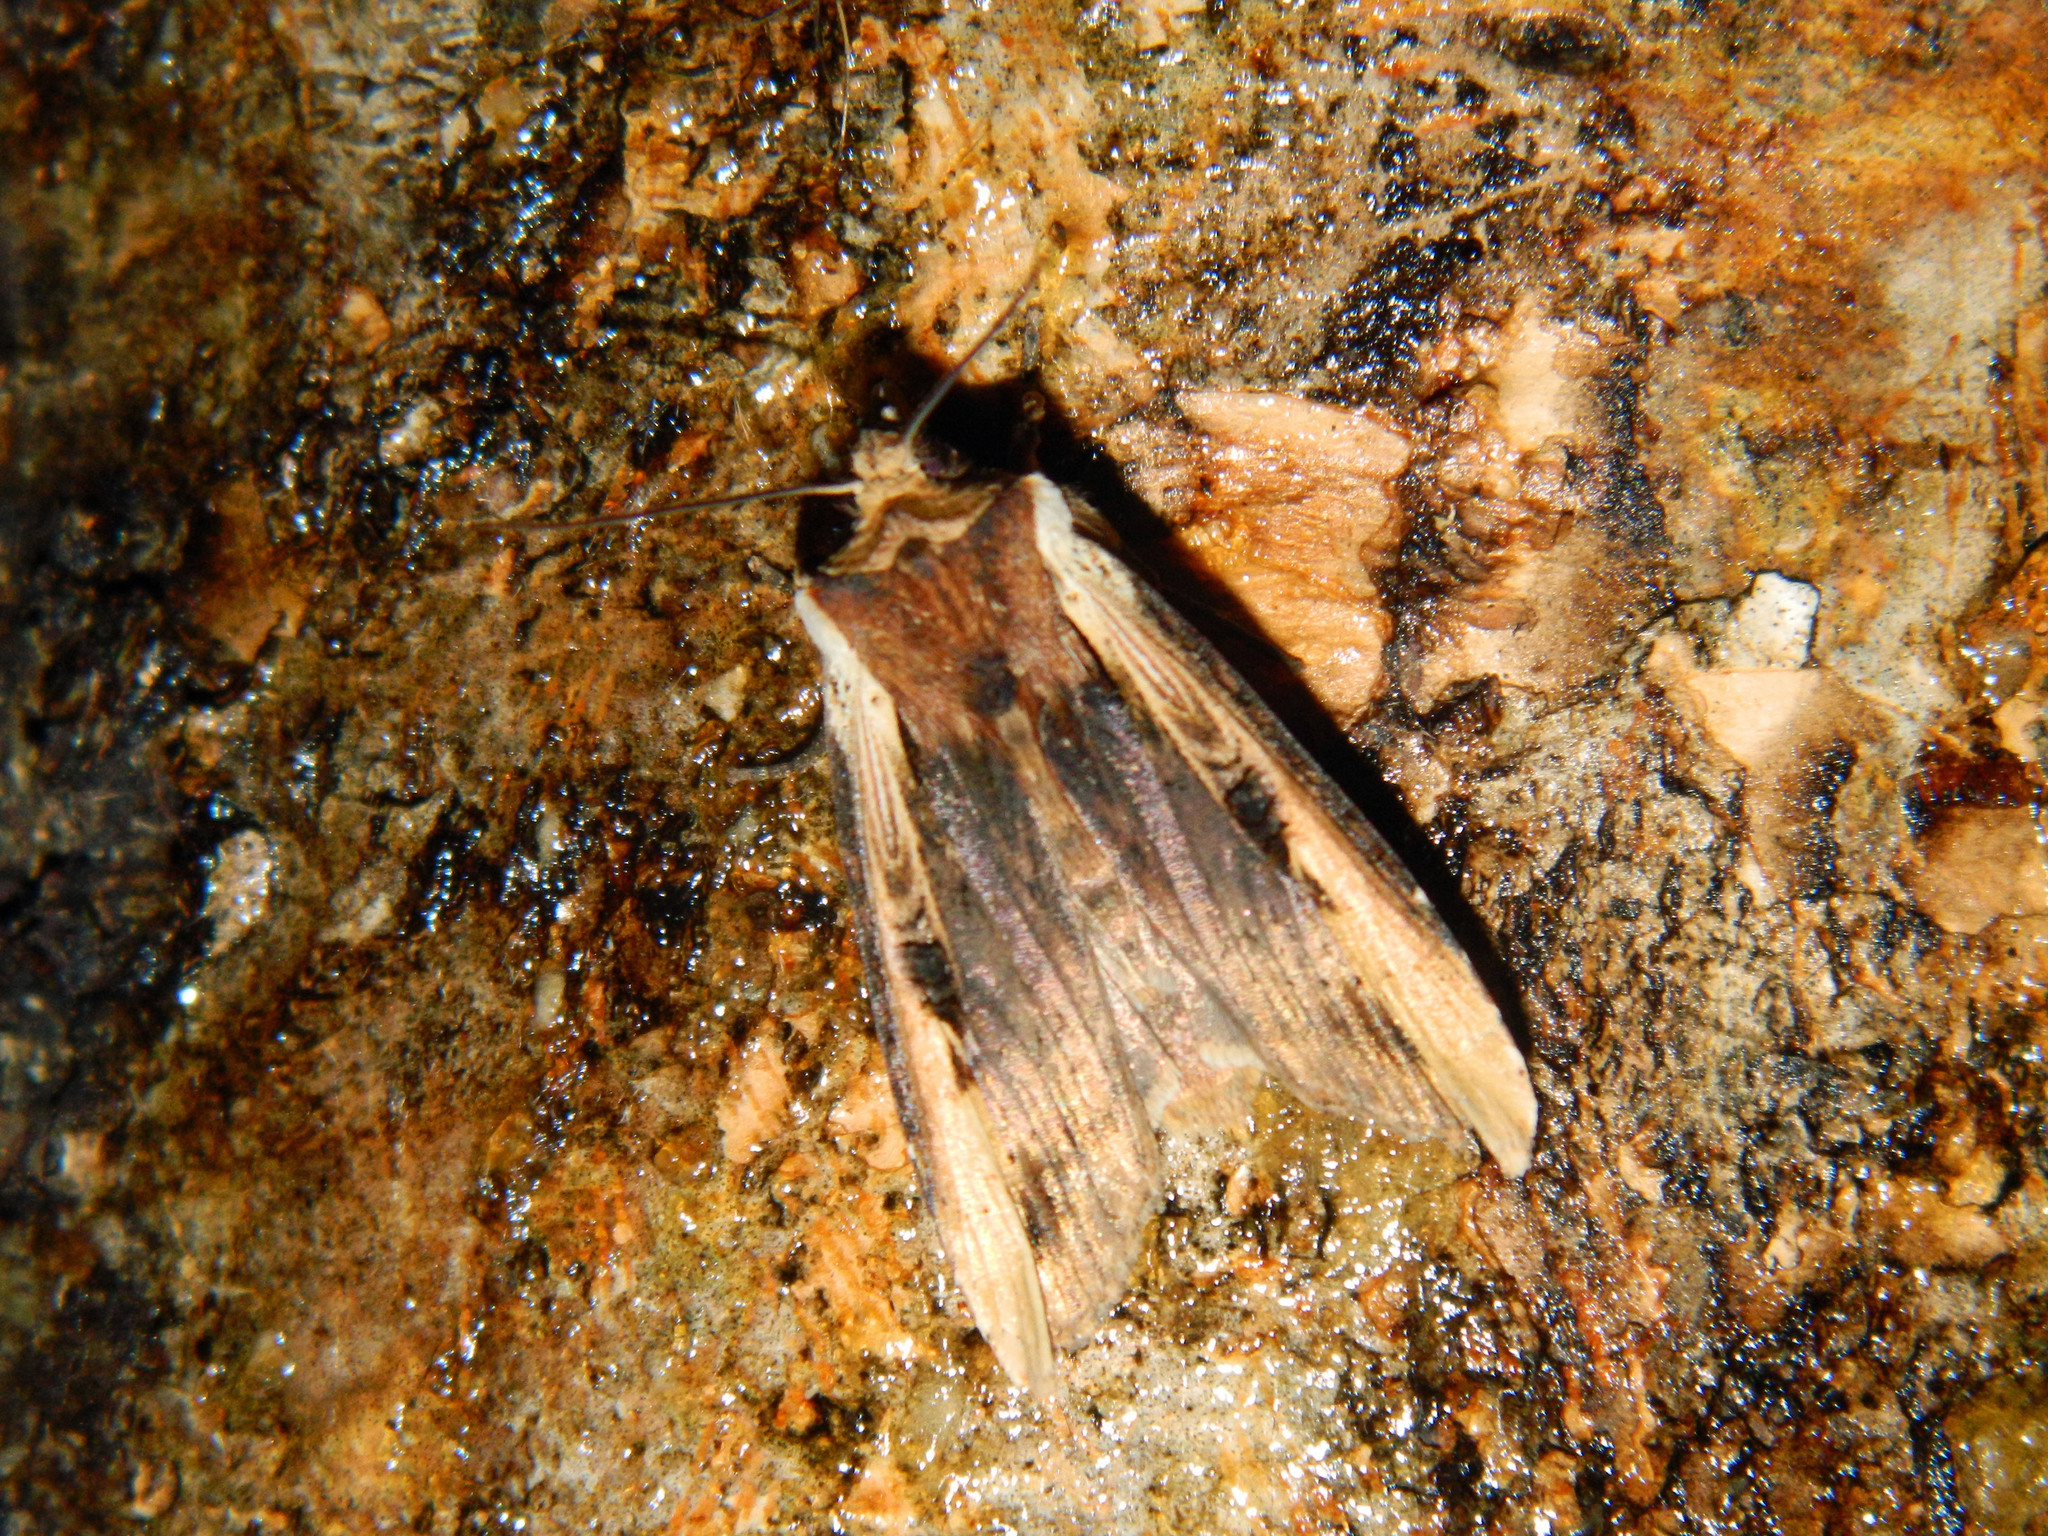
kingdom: Animalia
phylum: Arthropoda
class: Insecta
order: Lepidoptera
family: Noctuidae
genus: Xylena
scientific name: Xylena curvimacula
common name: Dot-and-dash swordgrass moth
